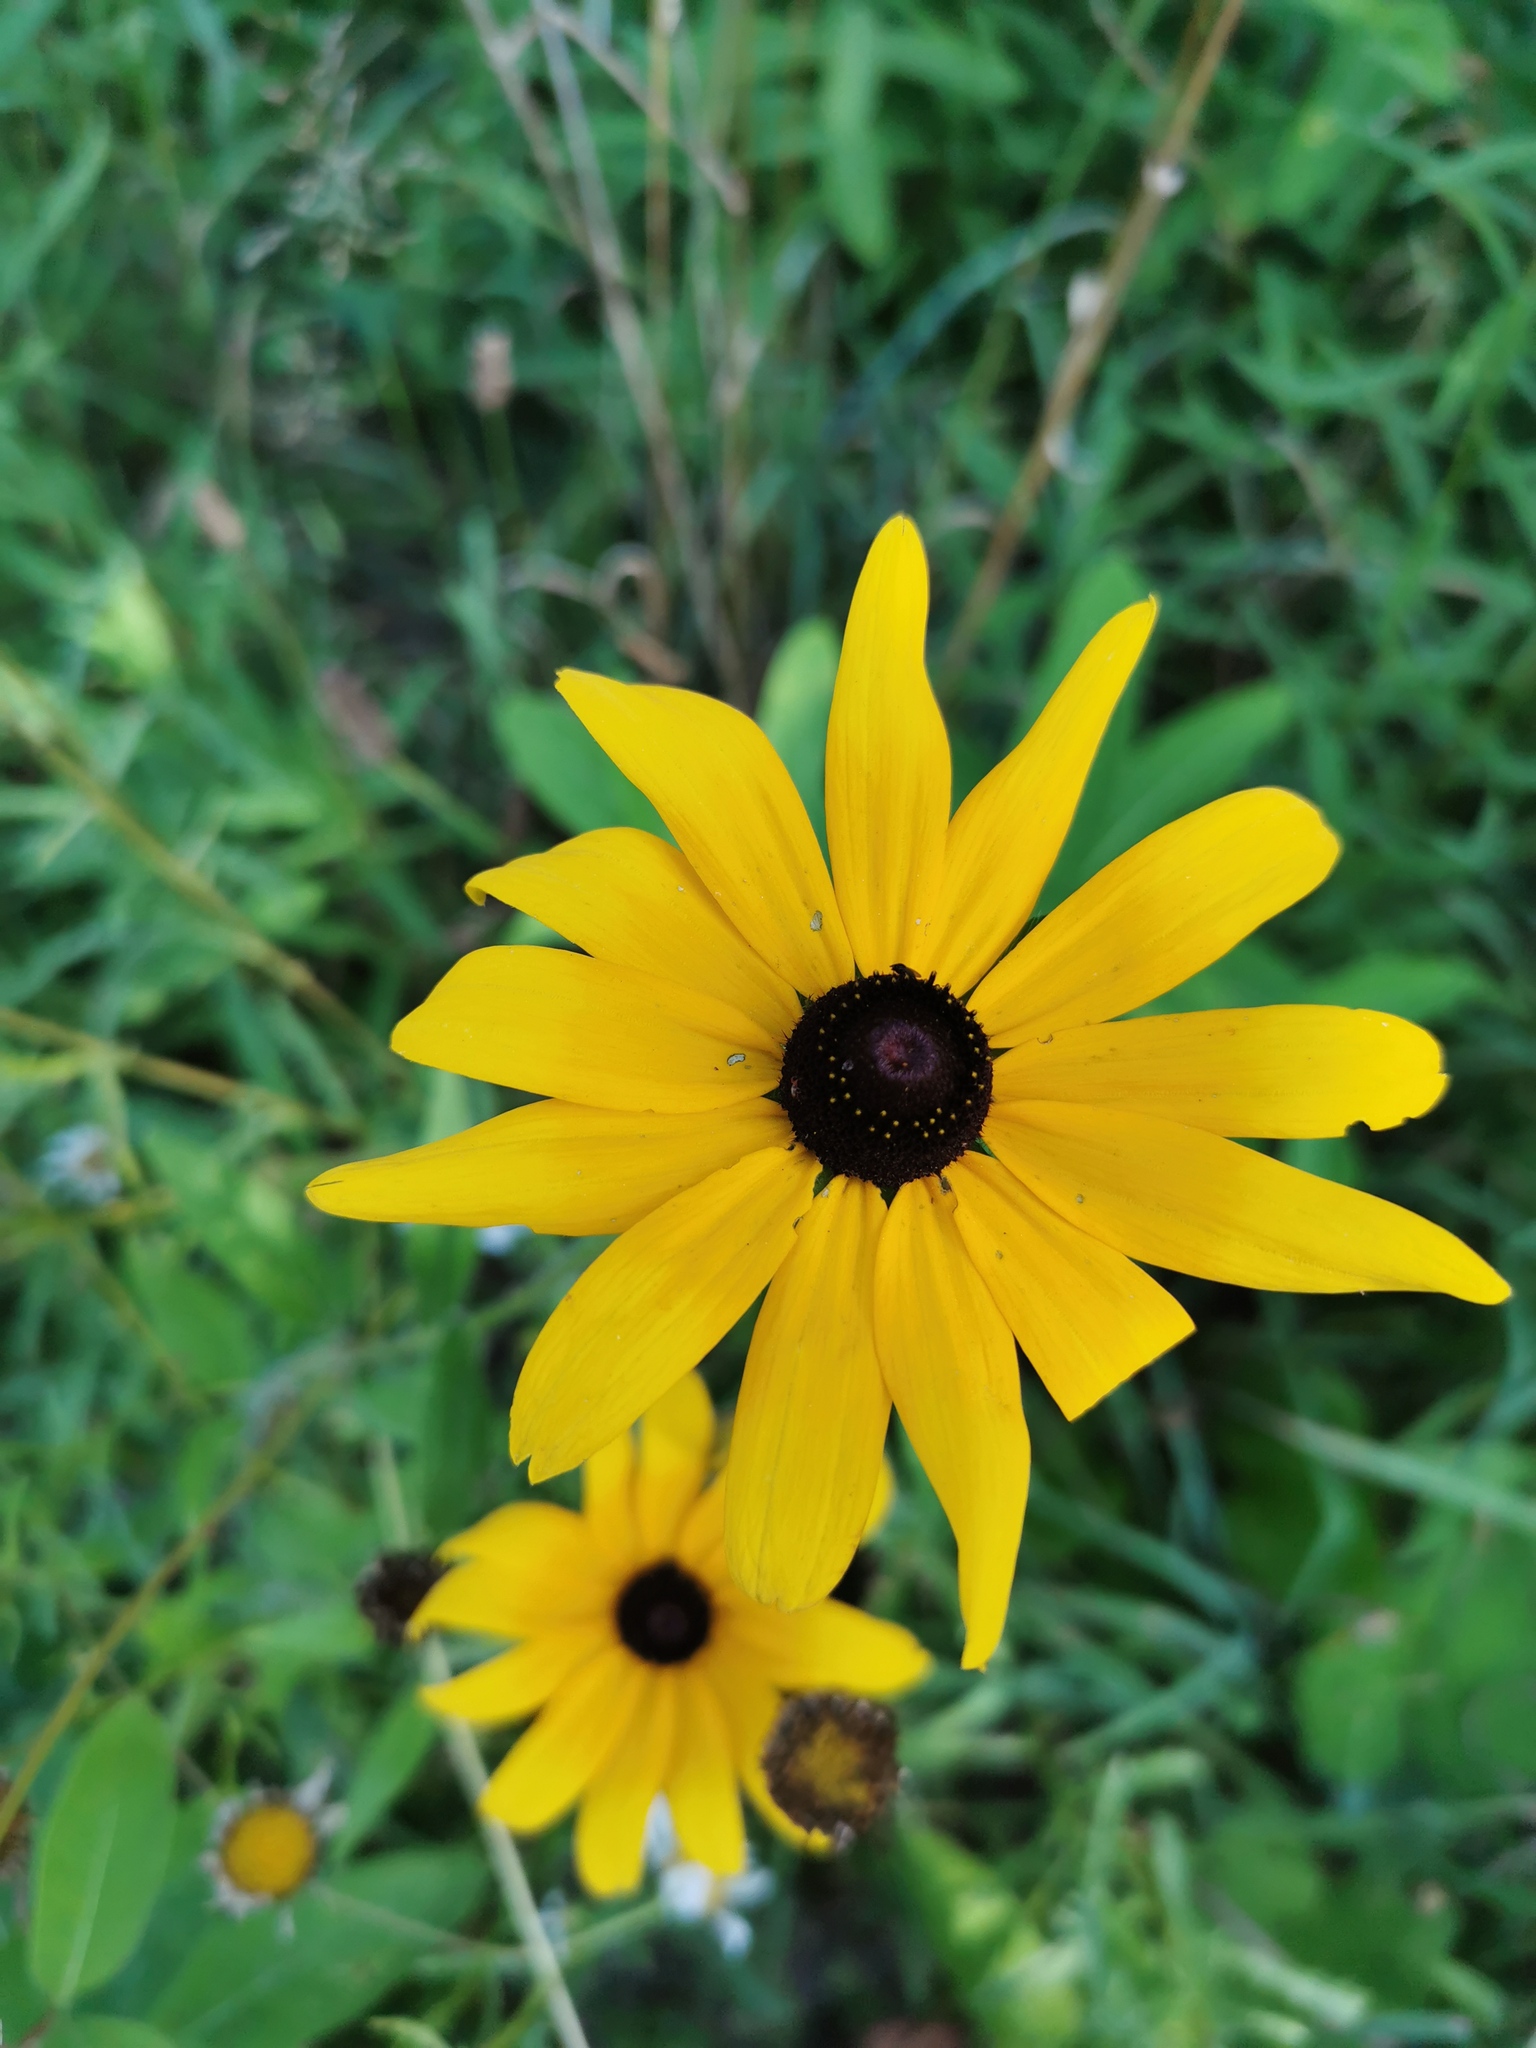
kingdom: Plantae
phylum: Tracheophyta
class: Magnoliopsida
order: Asterales
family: Asteraceae
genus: Rudbeckia
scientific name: Rudbeckia hirta
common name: Black-eyed-susan
